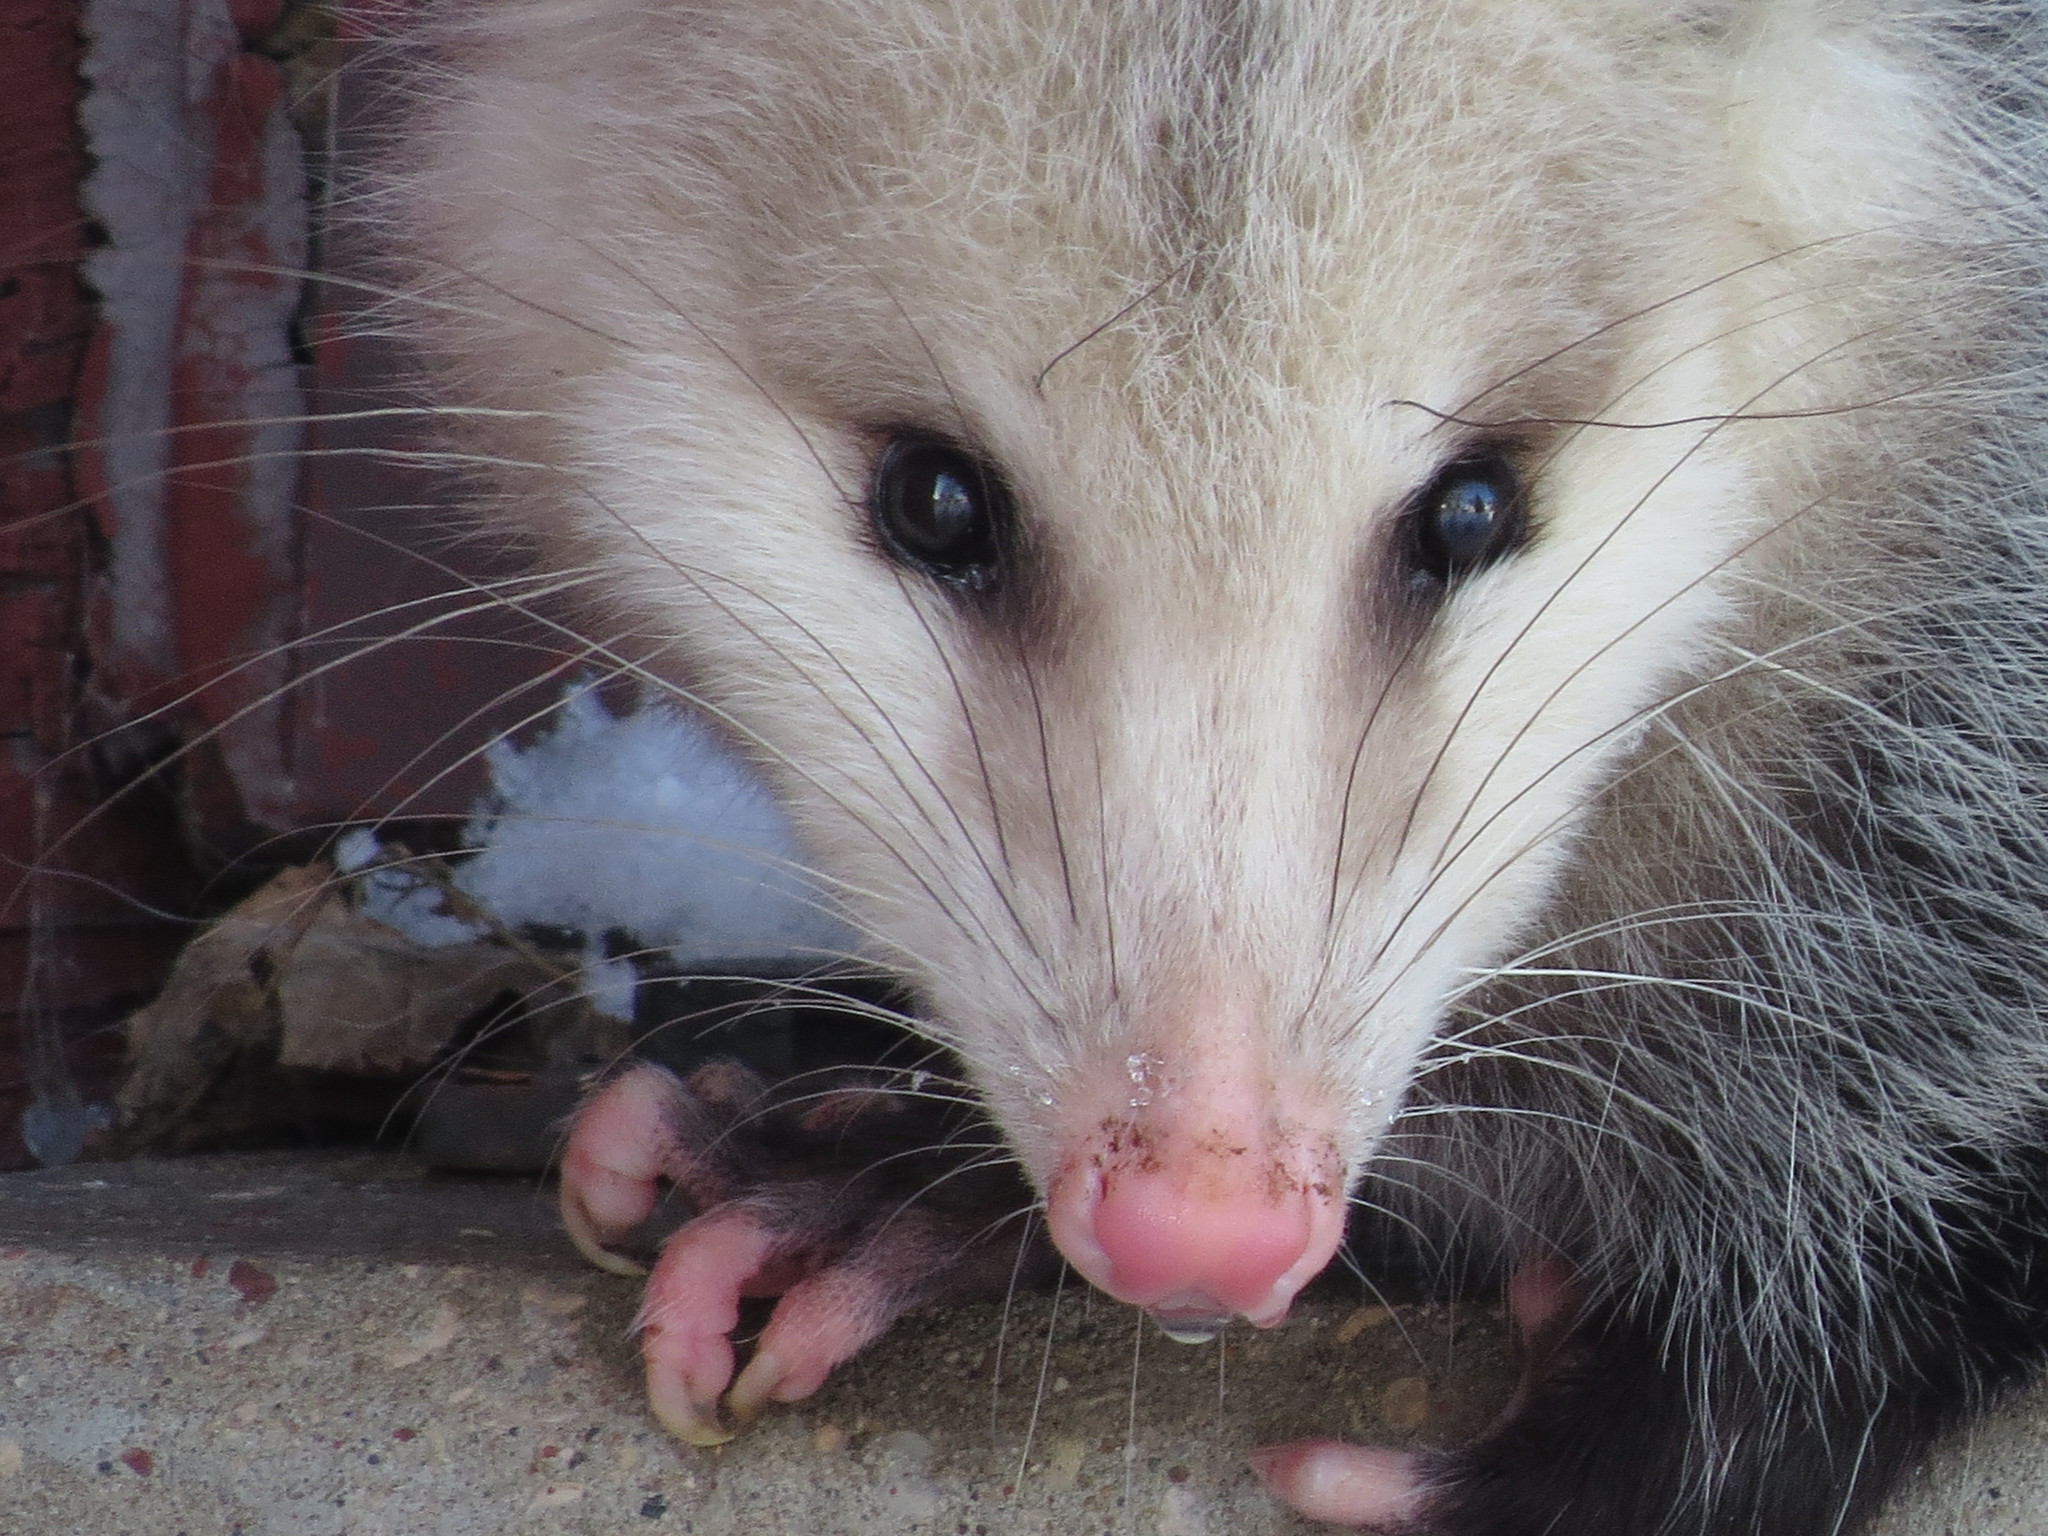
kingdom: Animalia
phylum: Chordata
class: Mammalia
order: Didelphimorphia
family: Didelphidae
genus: Didelphis
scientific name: Didelphis virginiana
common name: Virginia opossum
